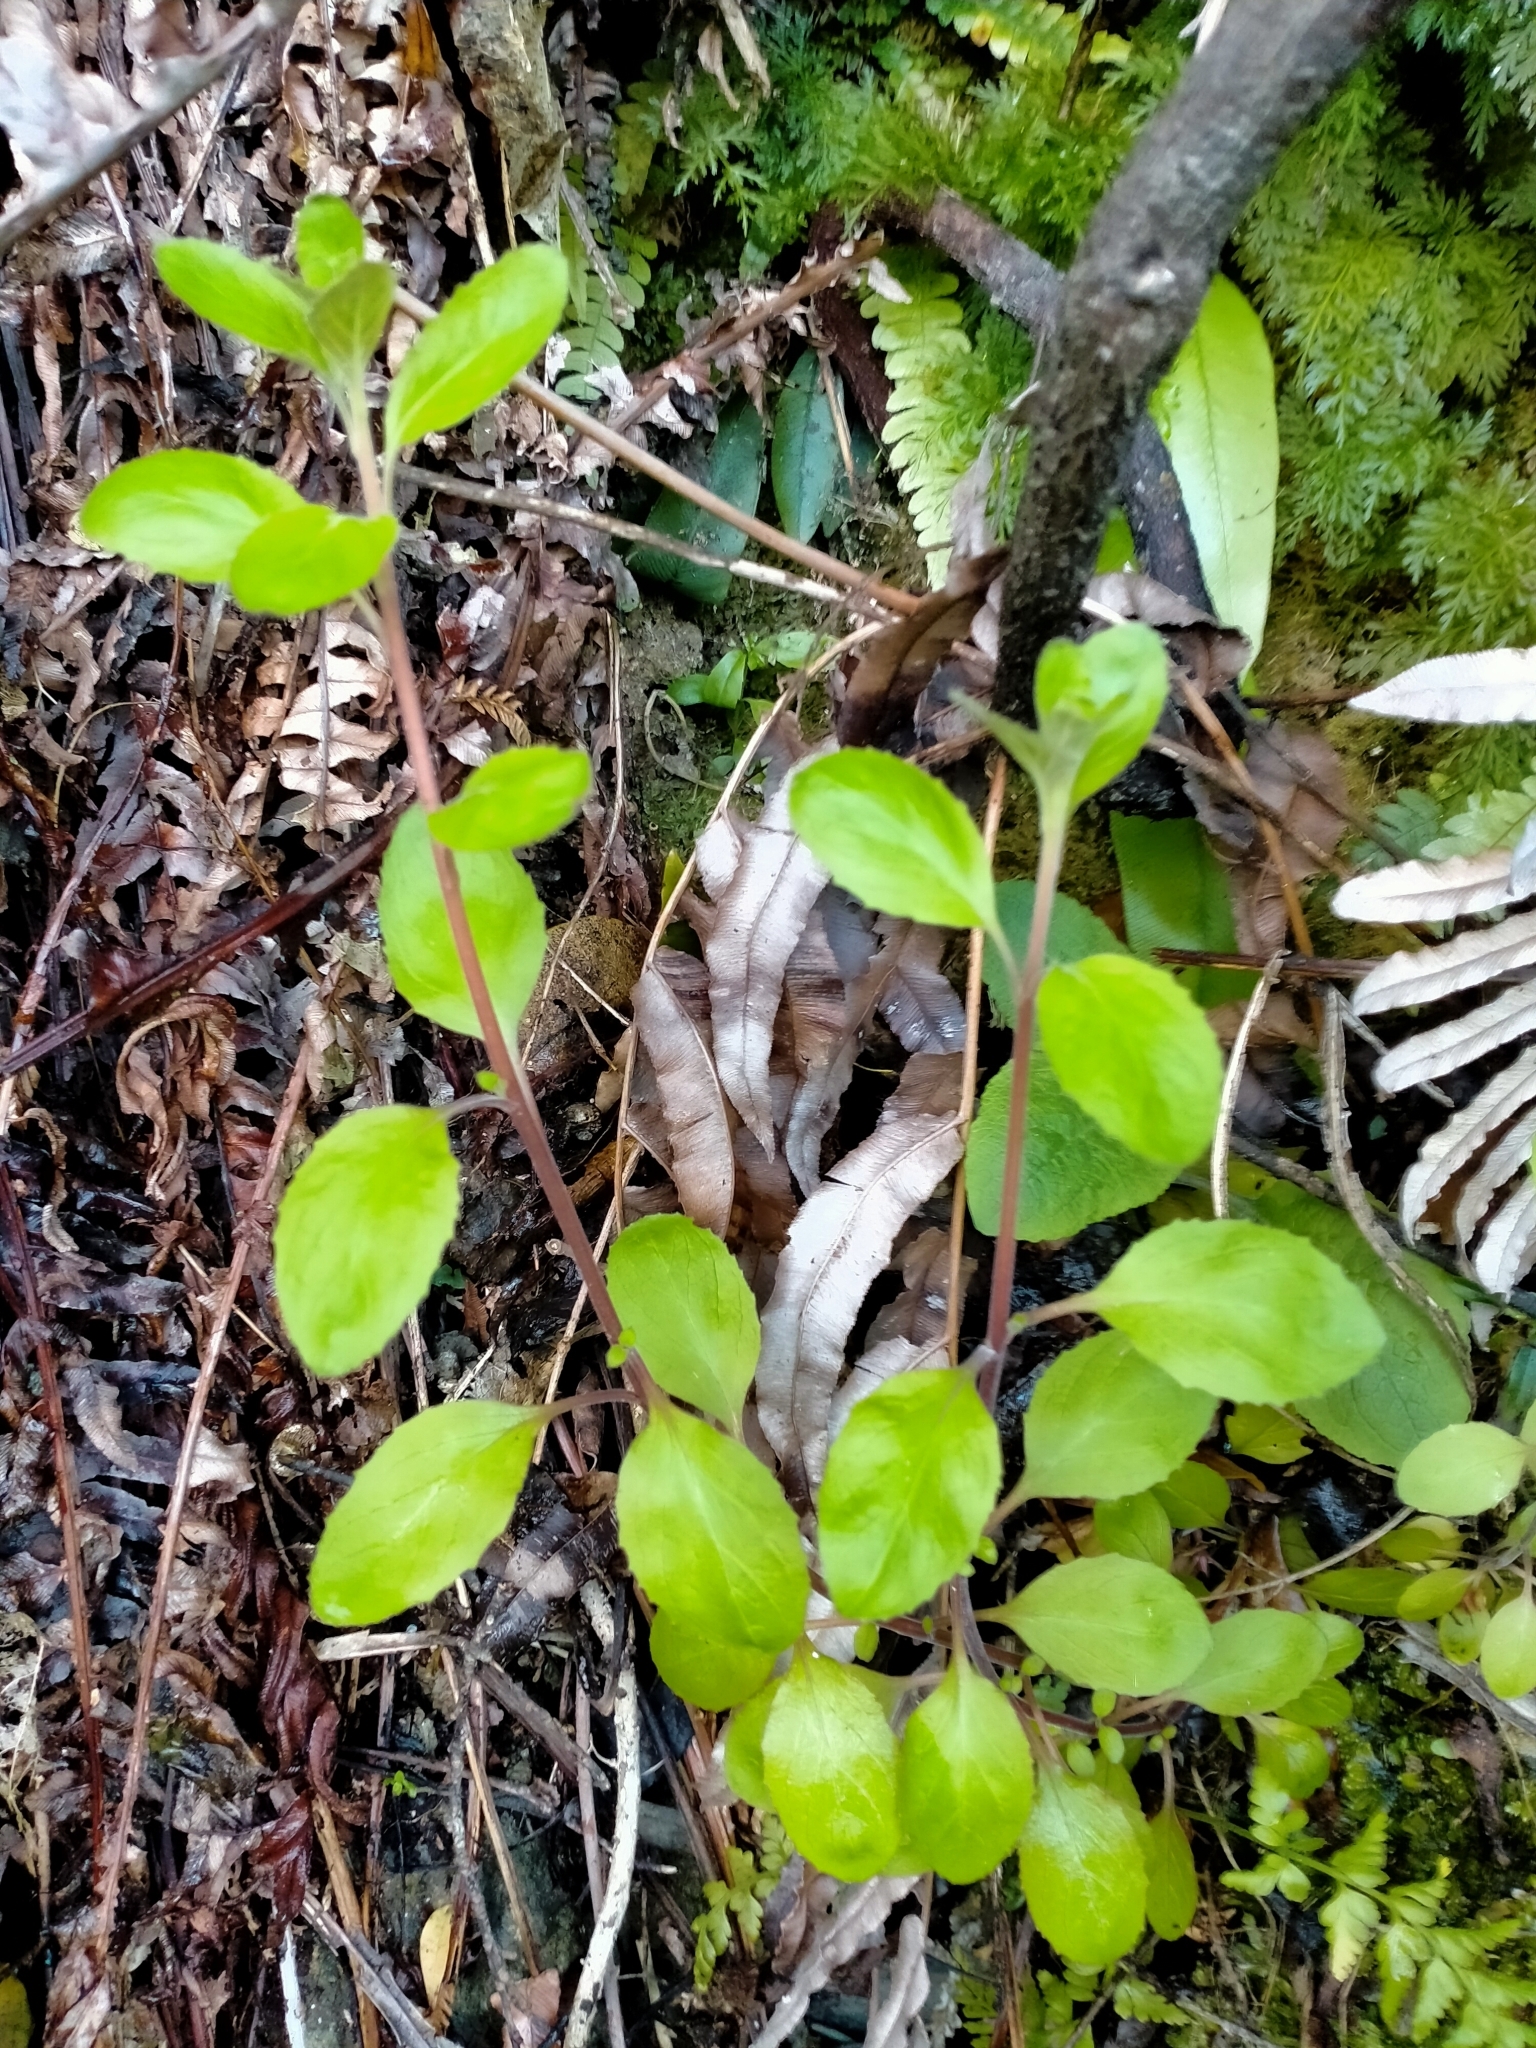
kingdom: Plantae
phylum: Tracheophyta
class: Magnoliopsida
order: Myrtales
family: Onagraceae
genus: Epilobium
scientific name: Epilobium pubens
